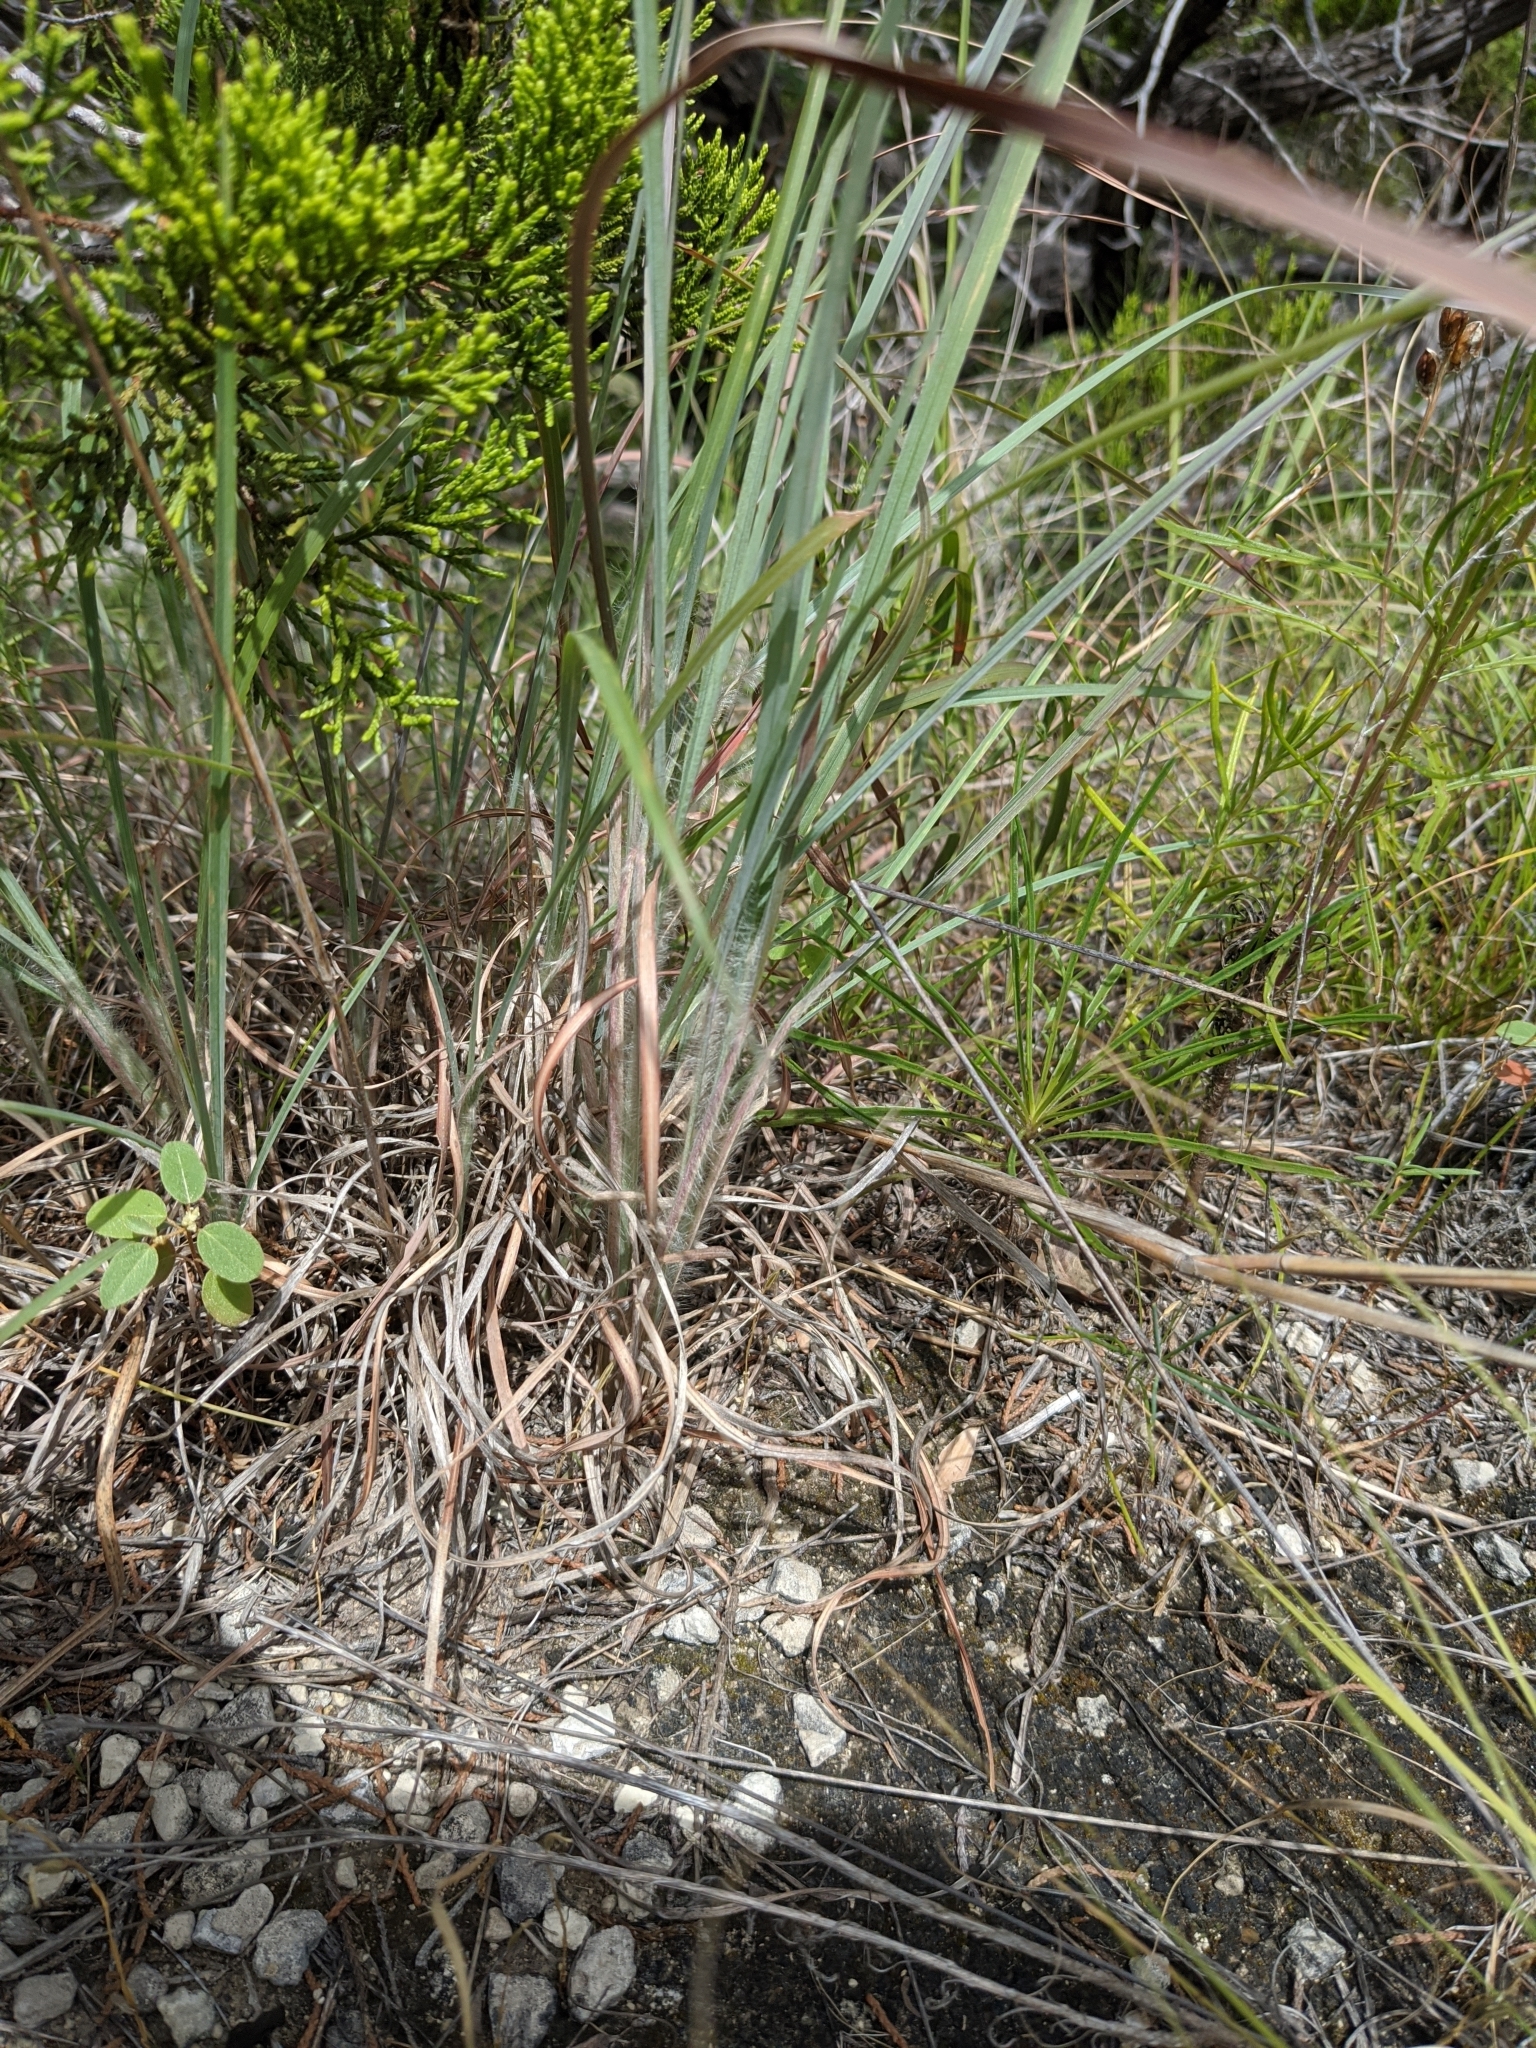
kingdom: Plantae
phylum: Tracheophyta
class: Liliopsida
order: Poales
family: Poaceae
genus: Andropogon
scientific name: Andropogon gerardi
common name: Big bluestem
